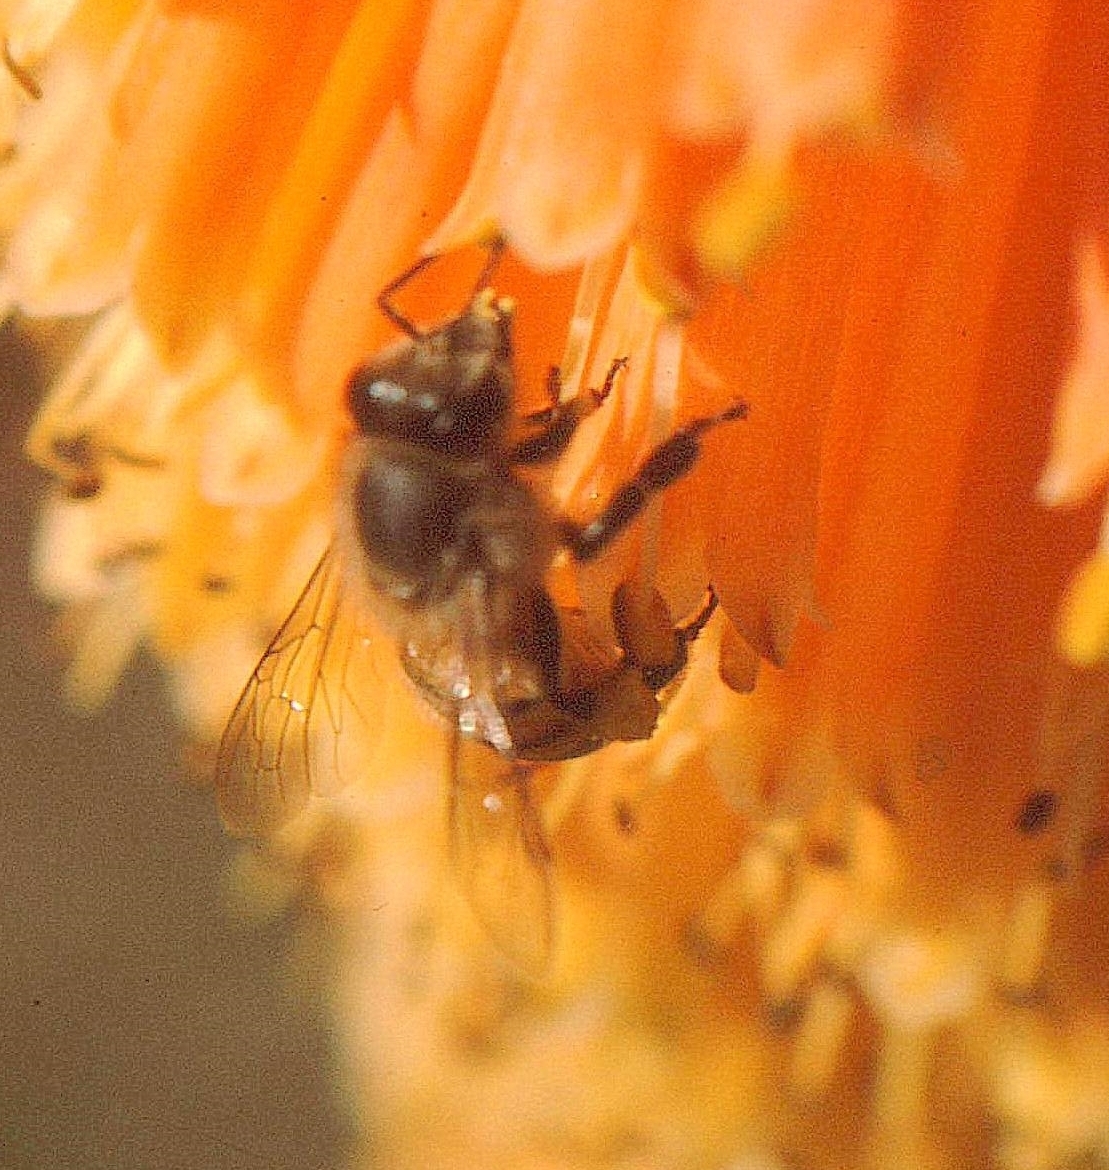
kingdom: Animalia
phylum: Arthropoda
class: Insecta
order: Hymenoptera
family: Apidae
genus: Apis
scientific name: Apis mellifera
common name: Honey bee
